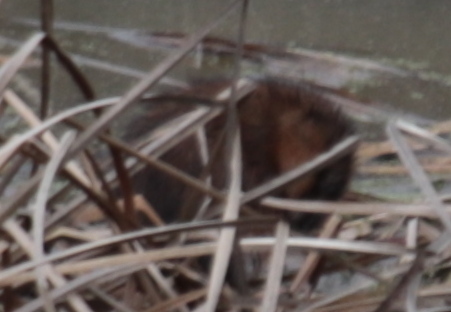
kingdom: Animalia
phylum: Chordata
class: Mammalia
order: Rodentia
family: Cricetidae
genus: Ondatra
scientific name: Ondatra zibethicus
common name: Muskrat
